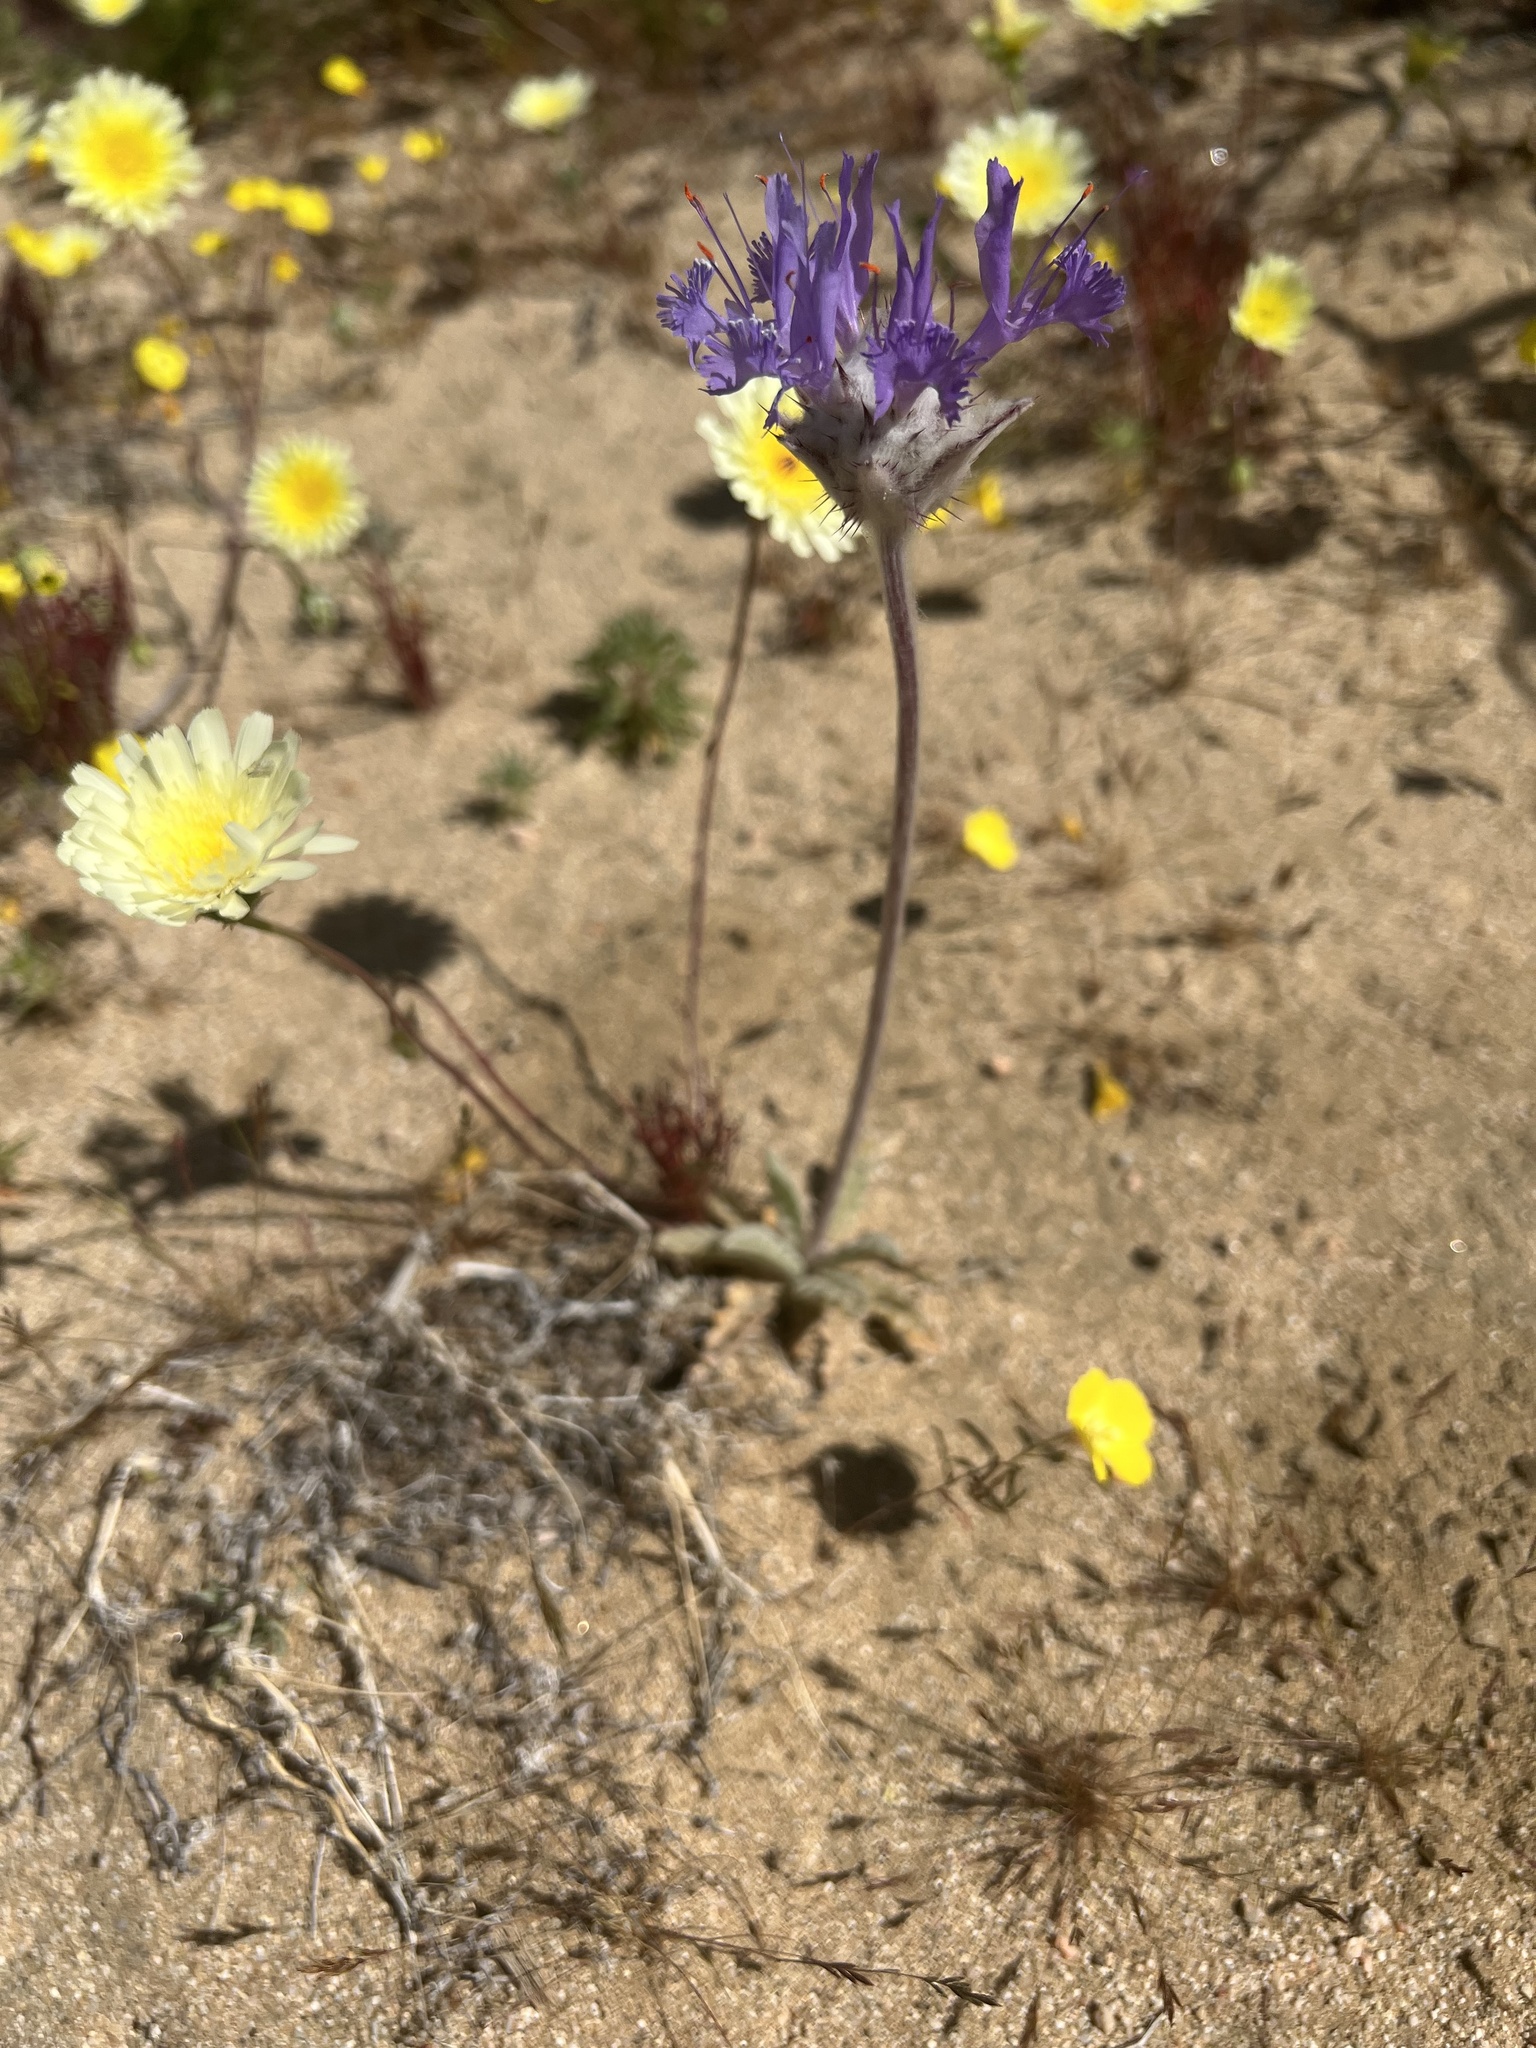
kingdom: Plantae
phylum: Tracheophyta
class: Magnoliopsida
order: Lamiales
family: Lamiaceae
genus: Salvia
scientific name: Salvia carduacea
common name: Thistle sage
